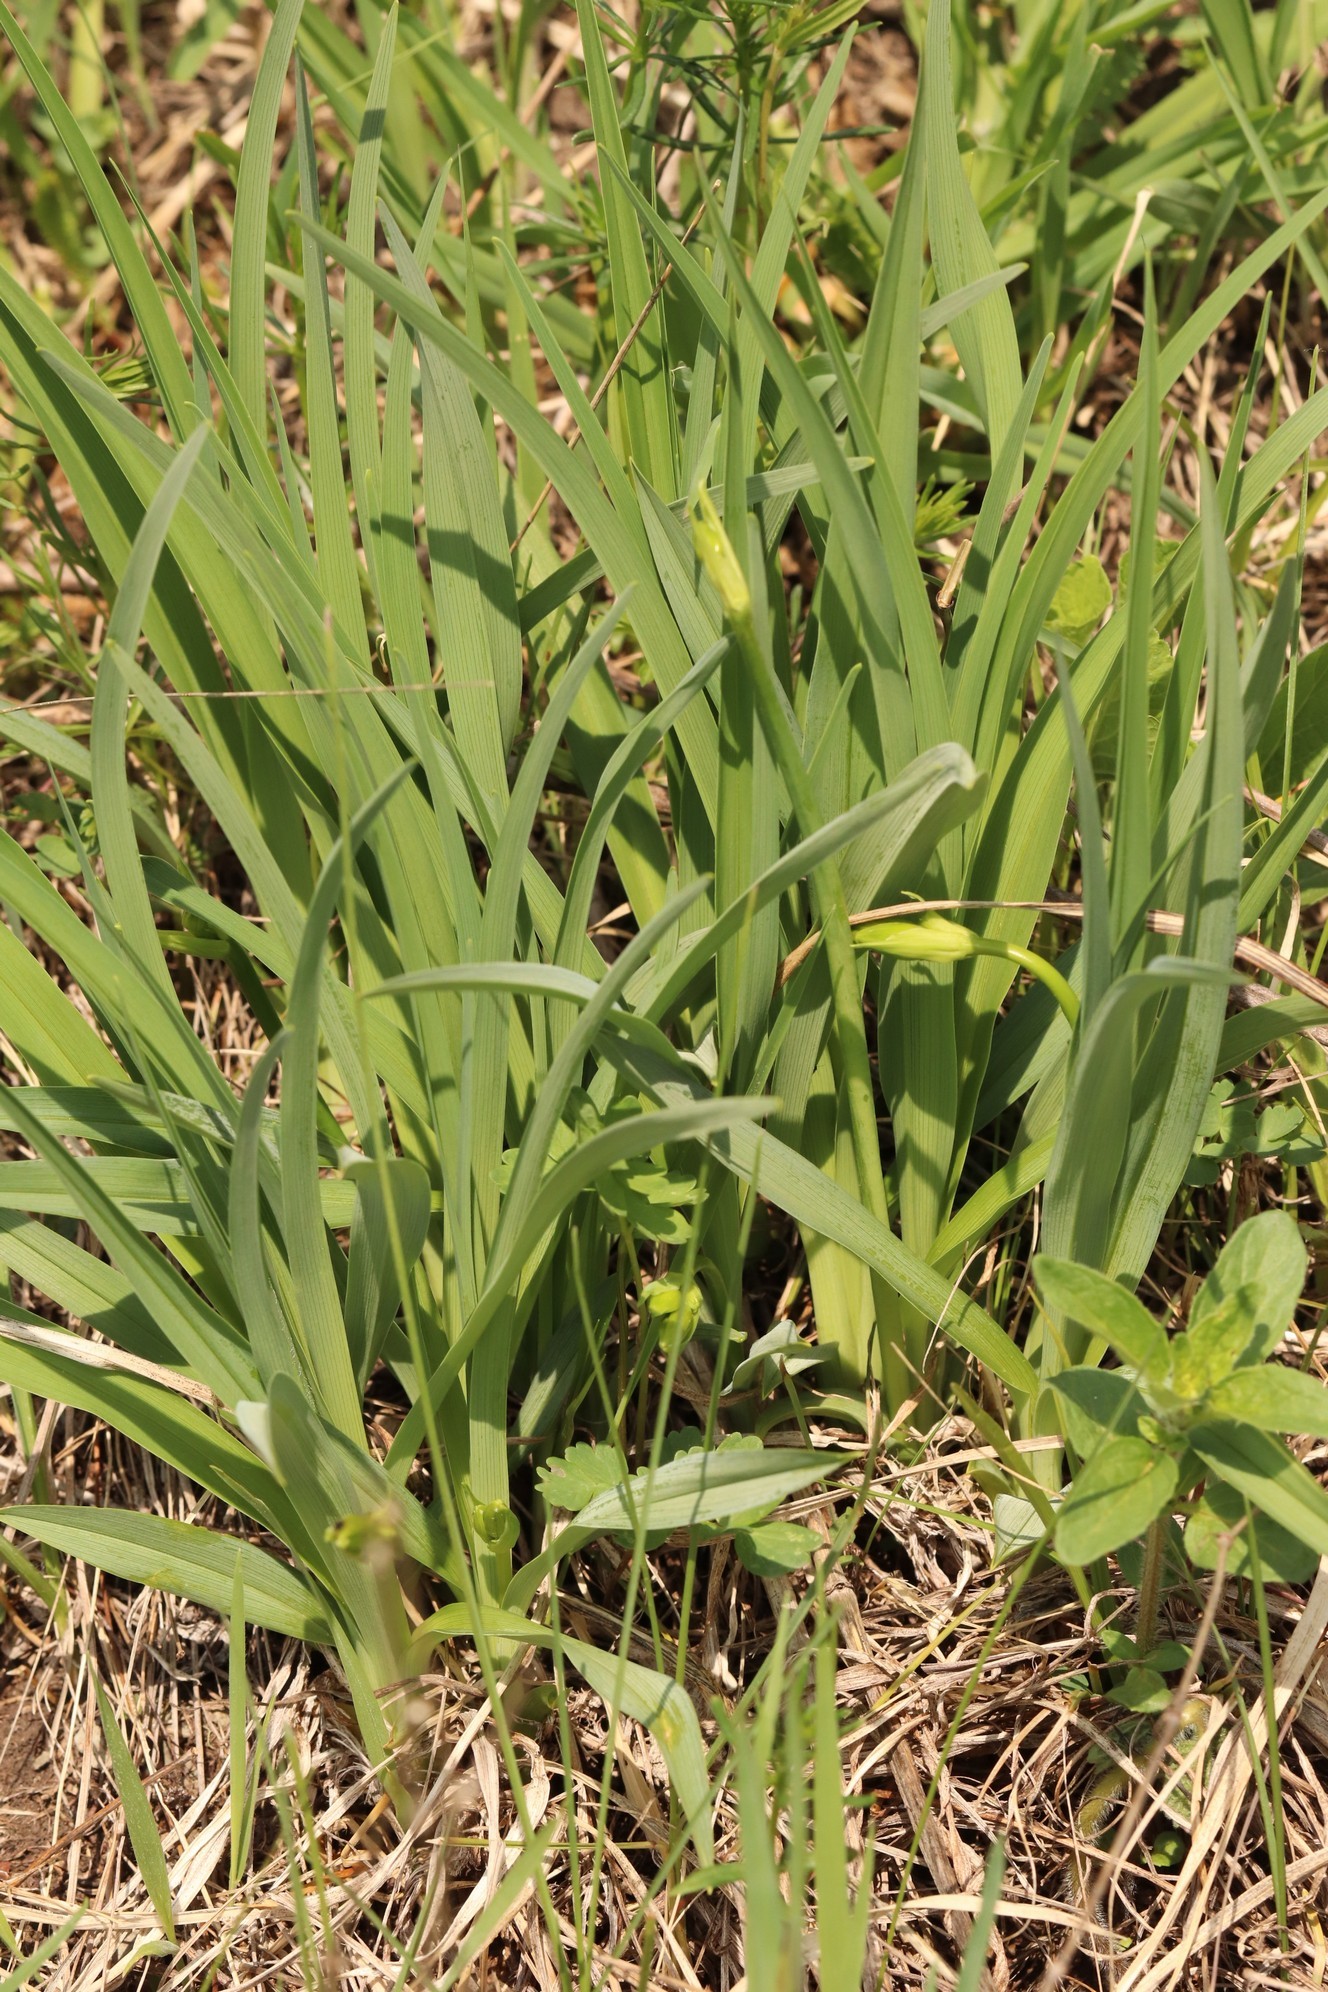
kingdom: Plantae
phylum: Tracheophyta
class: Liliopsida
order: Asparagales
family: Asphodelaceae
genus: Hemerocallis
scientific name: Hemerocallis minor
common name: Small daylily
